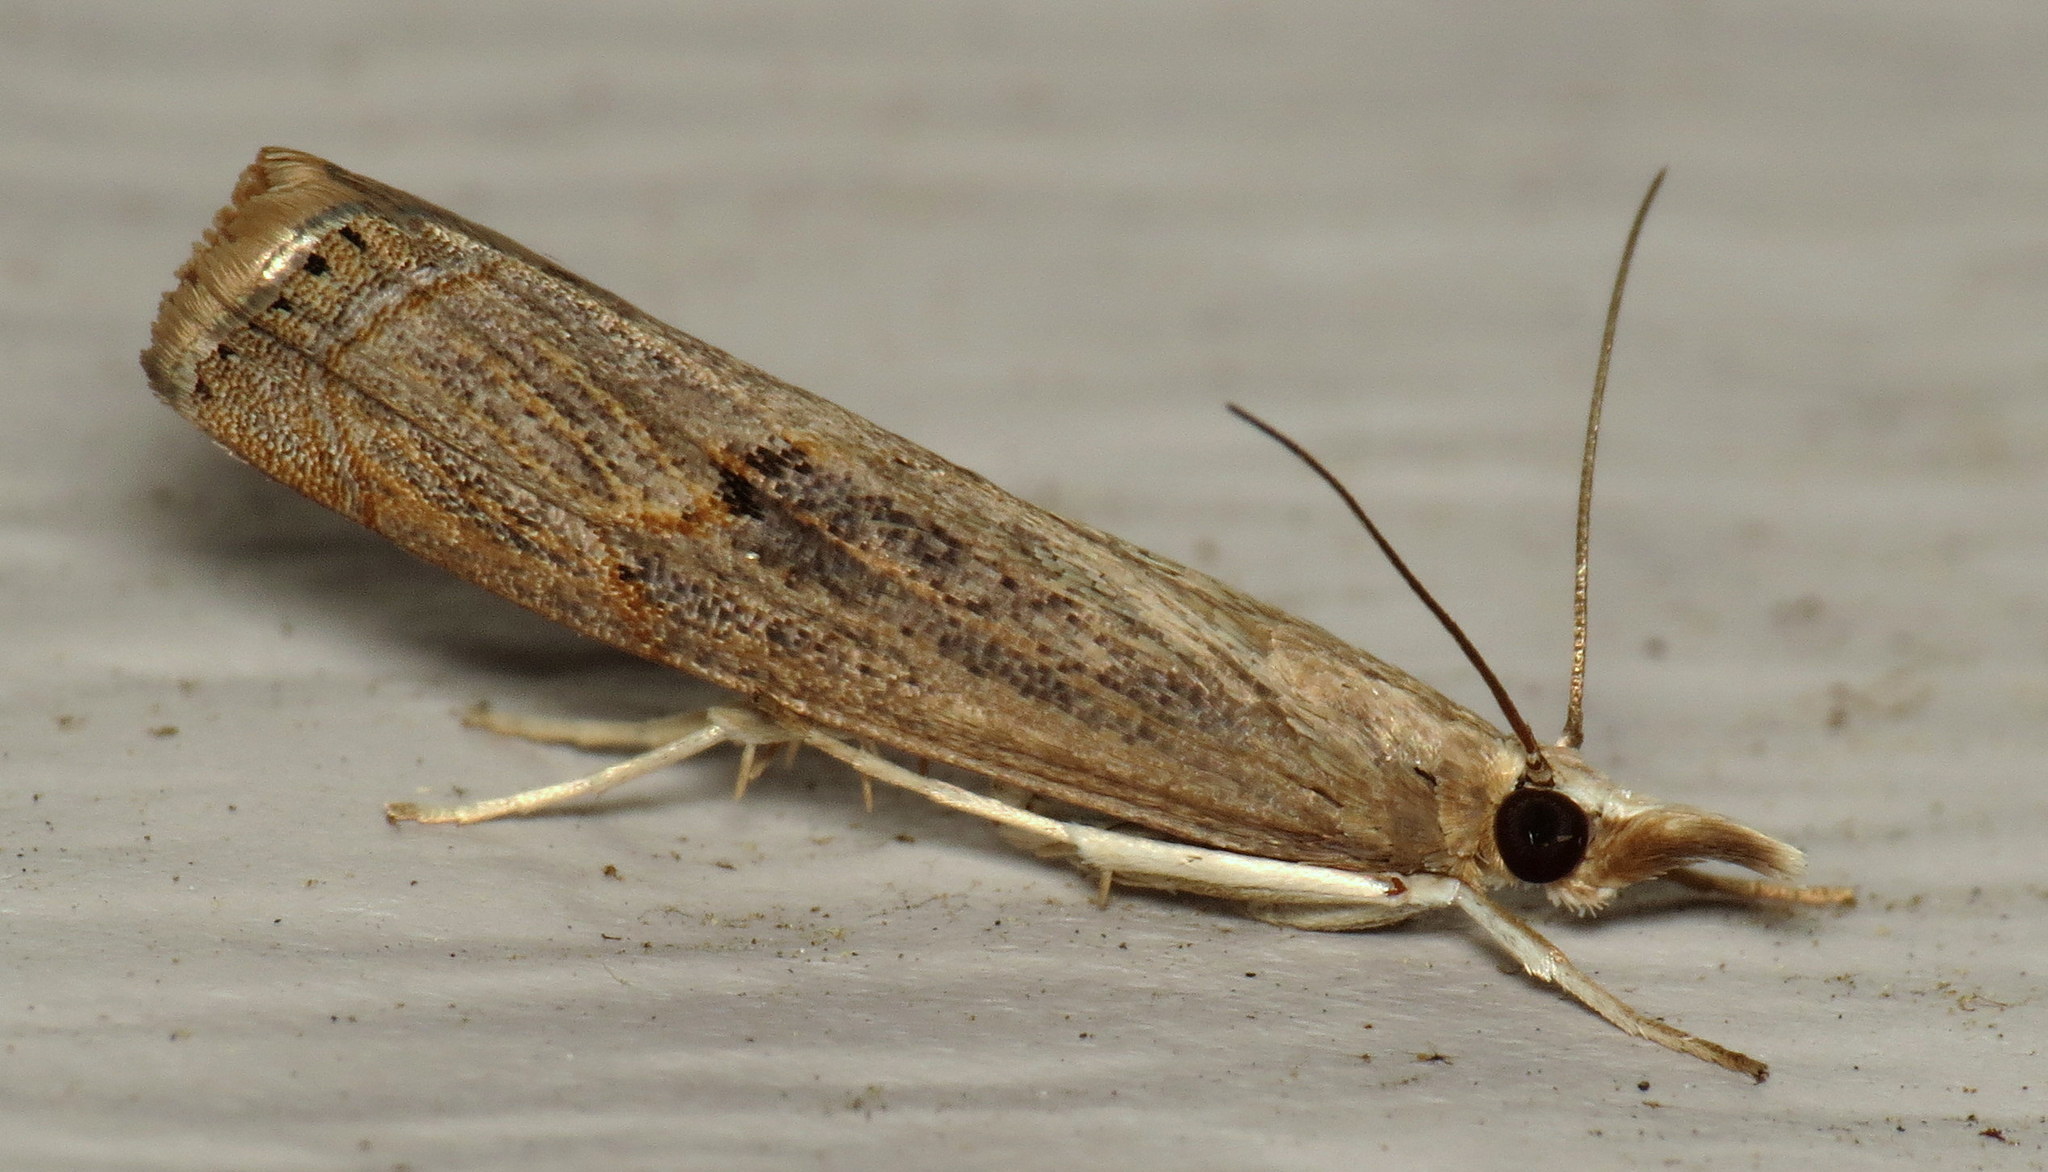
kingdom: Animalia
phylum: Arthropoda
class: Insecta
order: Lepidoptera
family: Crambidae
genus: Parapediasia
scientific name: Parapediasia teterellus
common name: Bluegrass webworm moth
